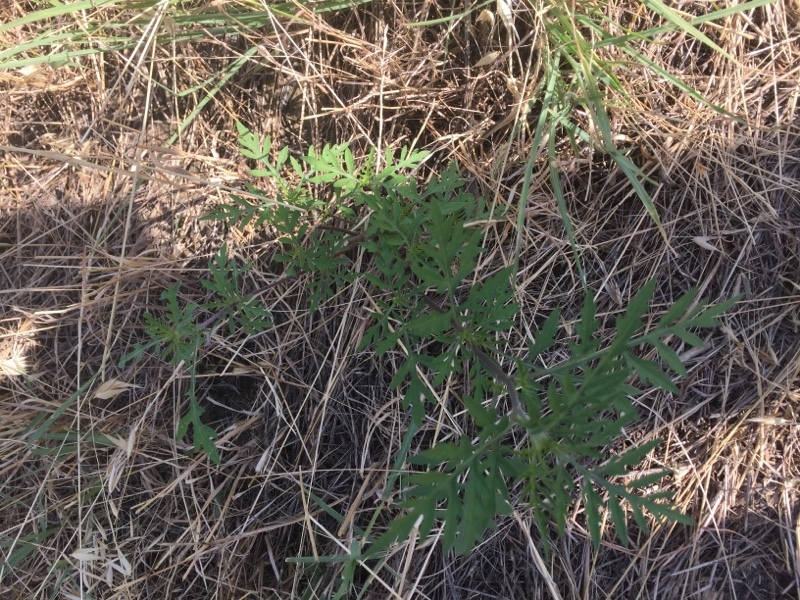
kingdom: Plantae
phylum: Tracheophyta
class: Magnoliopsida
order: Asterales
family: Asteraceae
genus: Ambrosia
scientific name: Ambrosia artemisiifolia
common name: Annual ragweed
